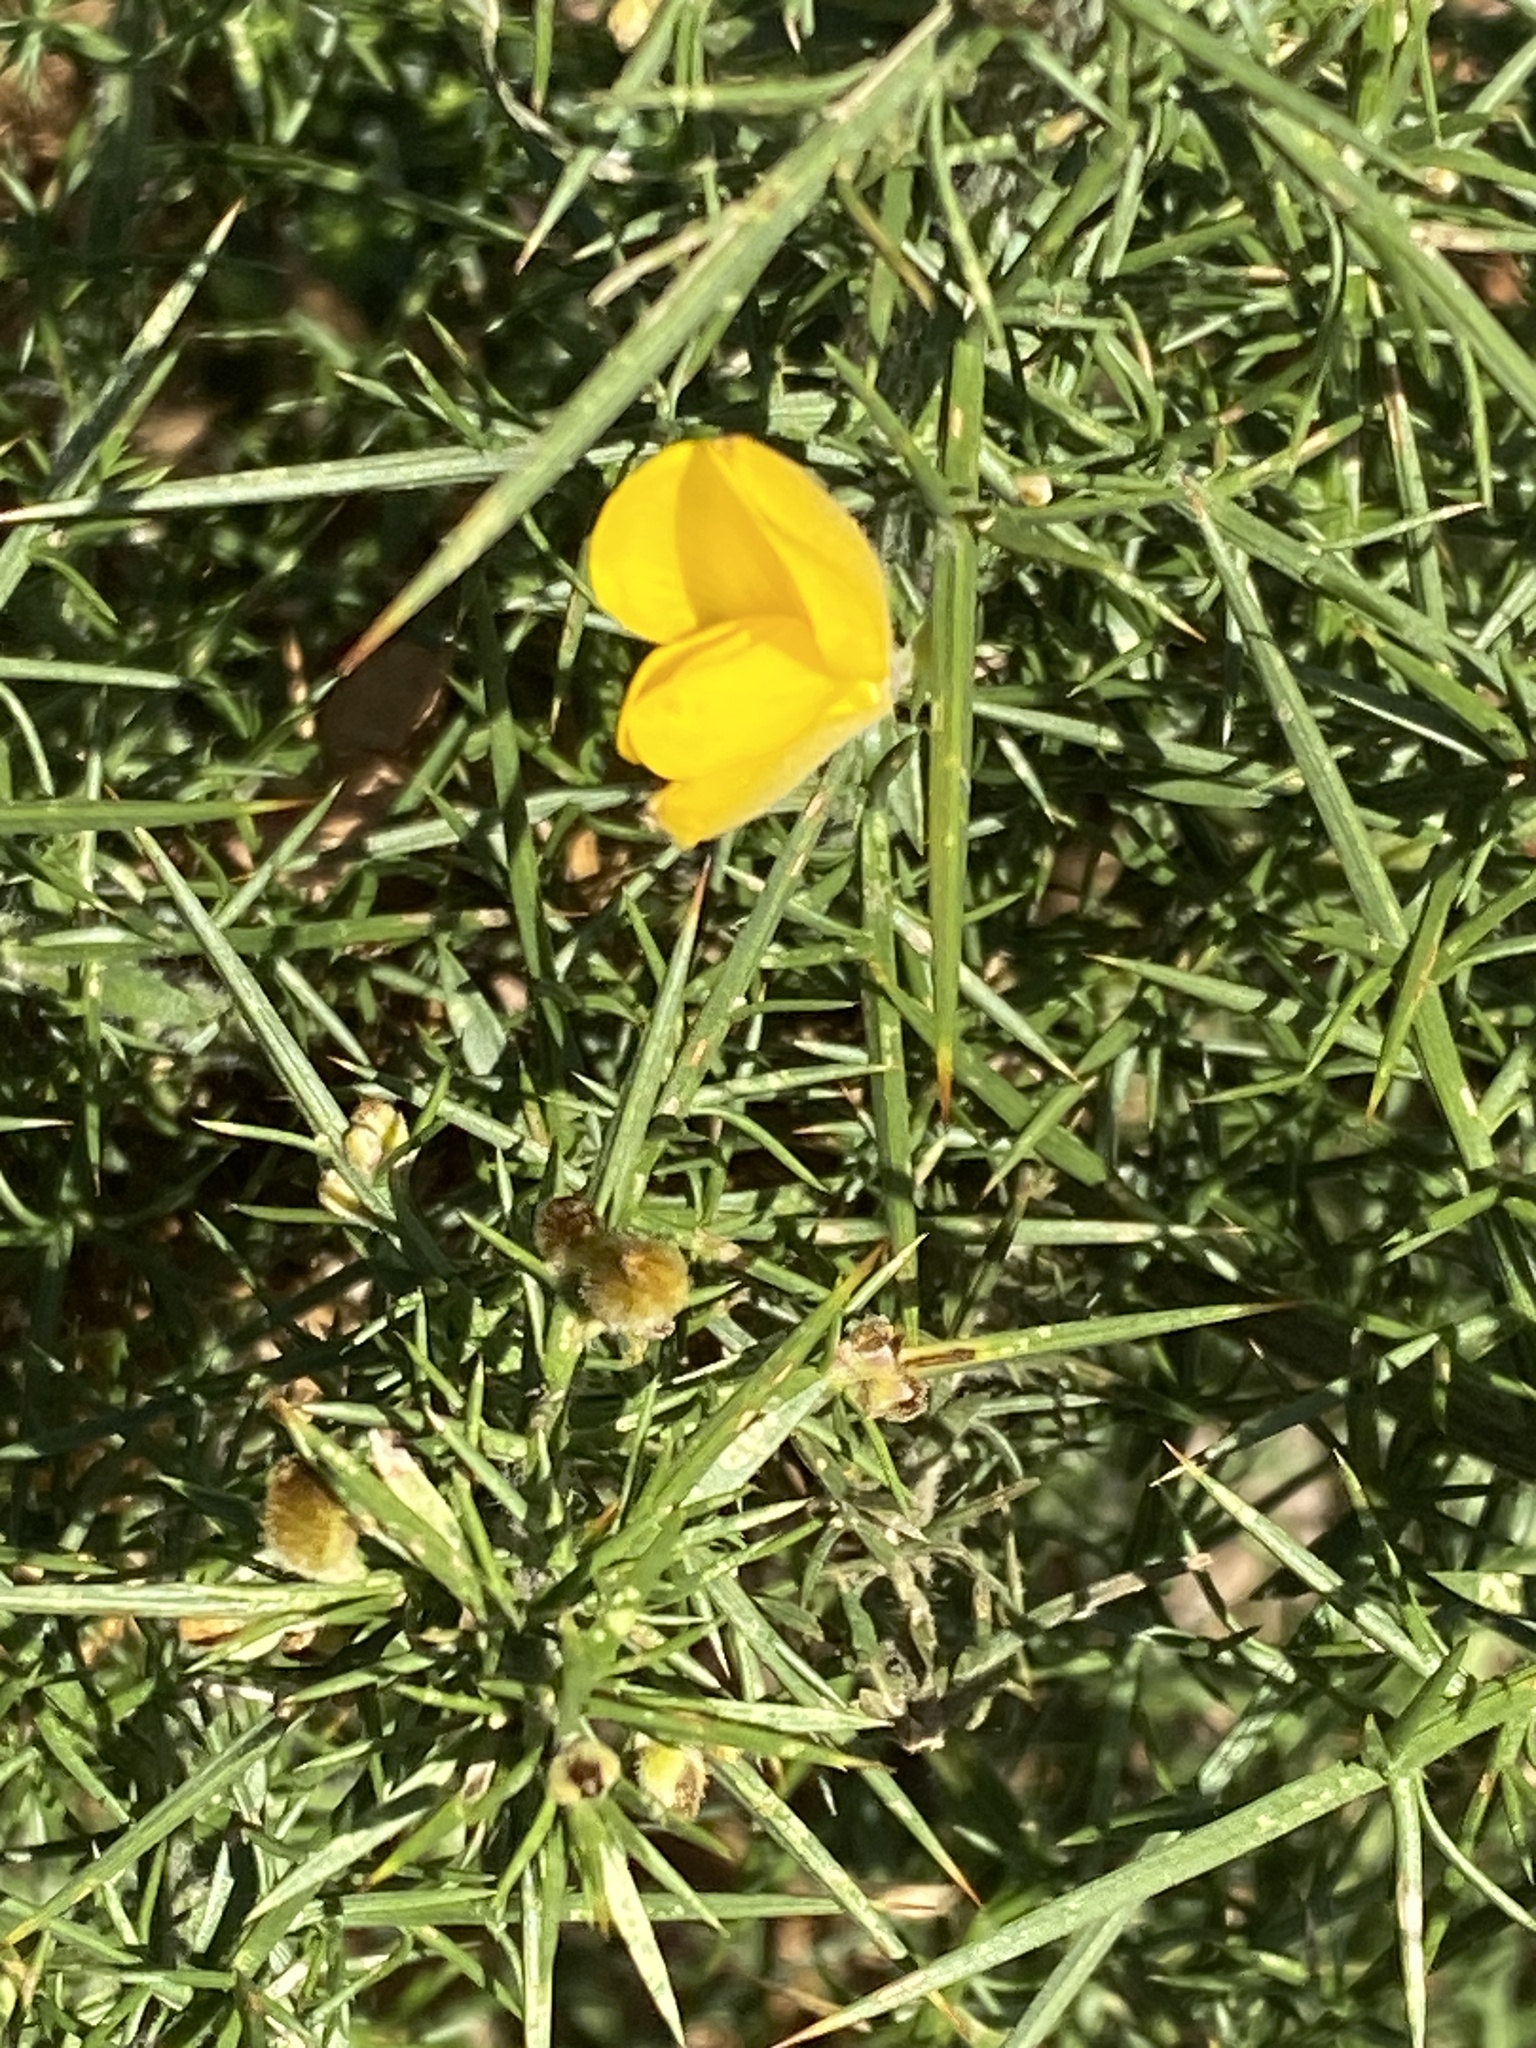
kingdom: Plantae
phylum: Tracheophyta
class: Magnoliopsida
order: Fabales
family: Fabaceae
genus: Ulex
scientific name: Ulex europaeus
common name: Common gorse
